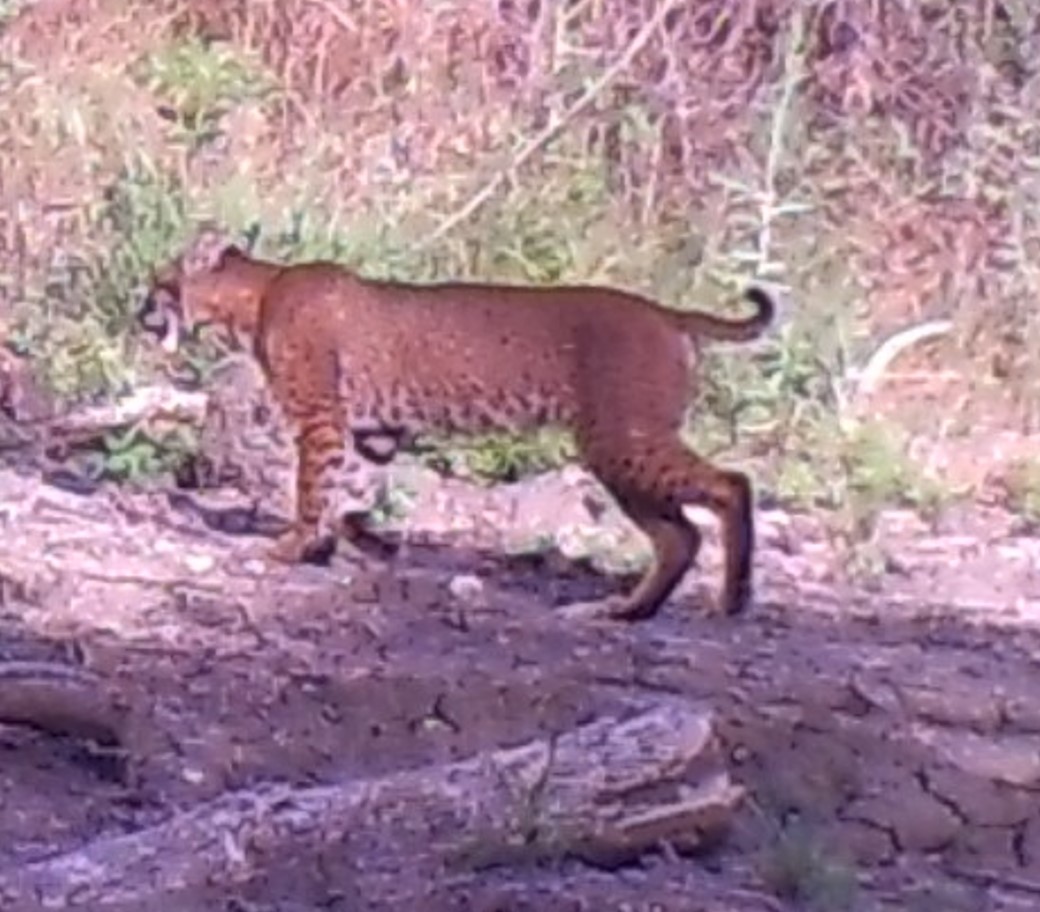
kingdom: Animalia
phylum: Chordata
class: Mammalia
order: Carnivora
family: Felidae
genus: Lynx
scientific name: Lynx rufus
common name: Bobcat
